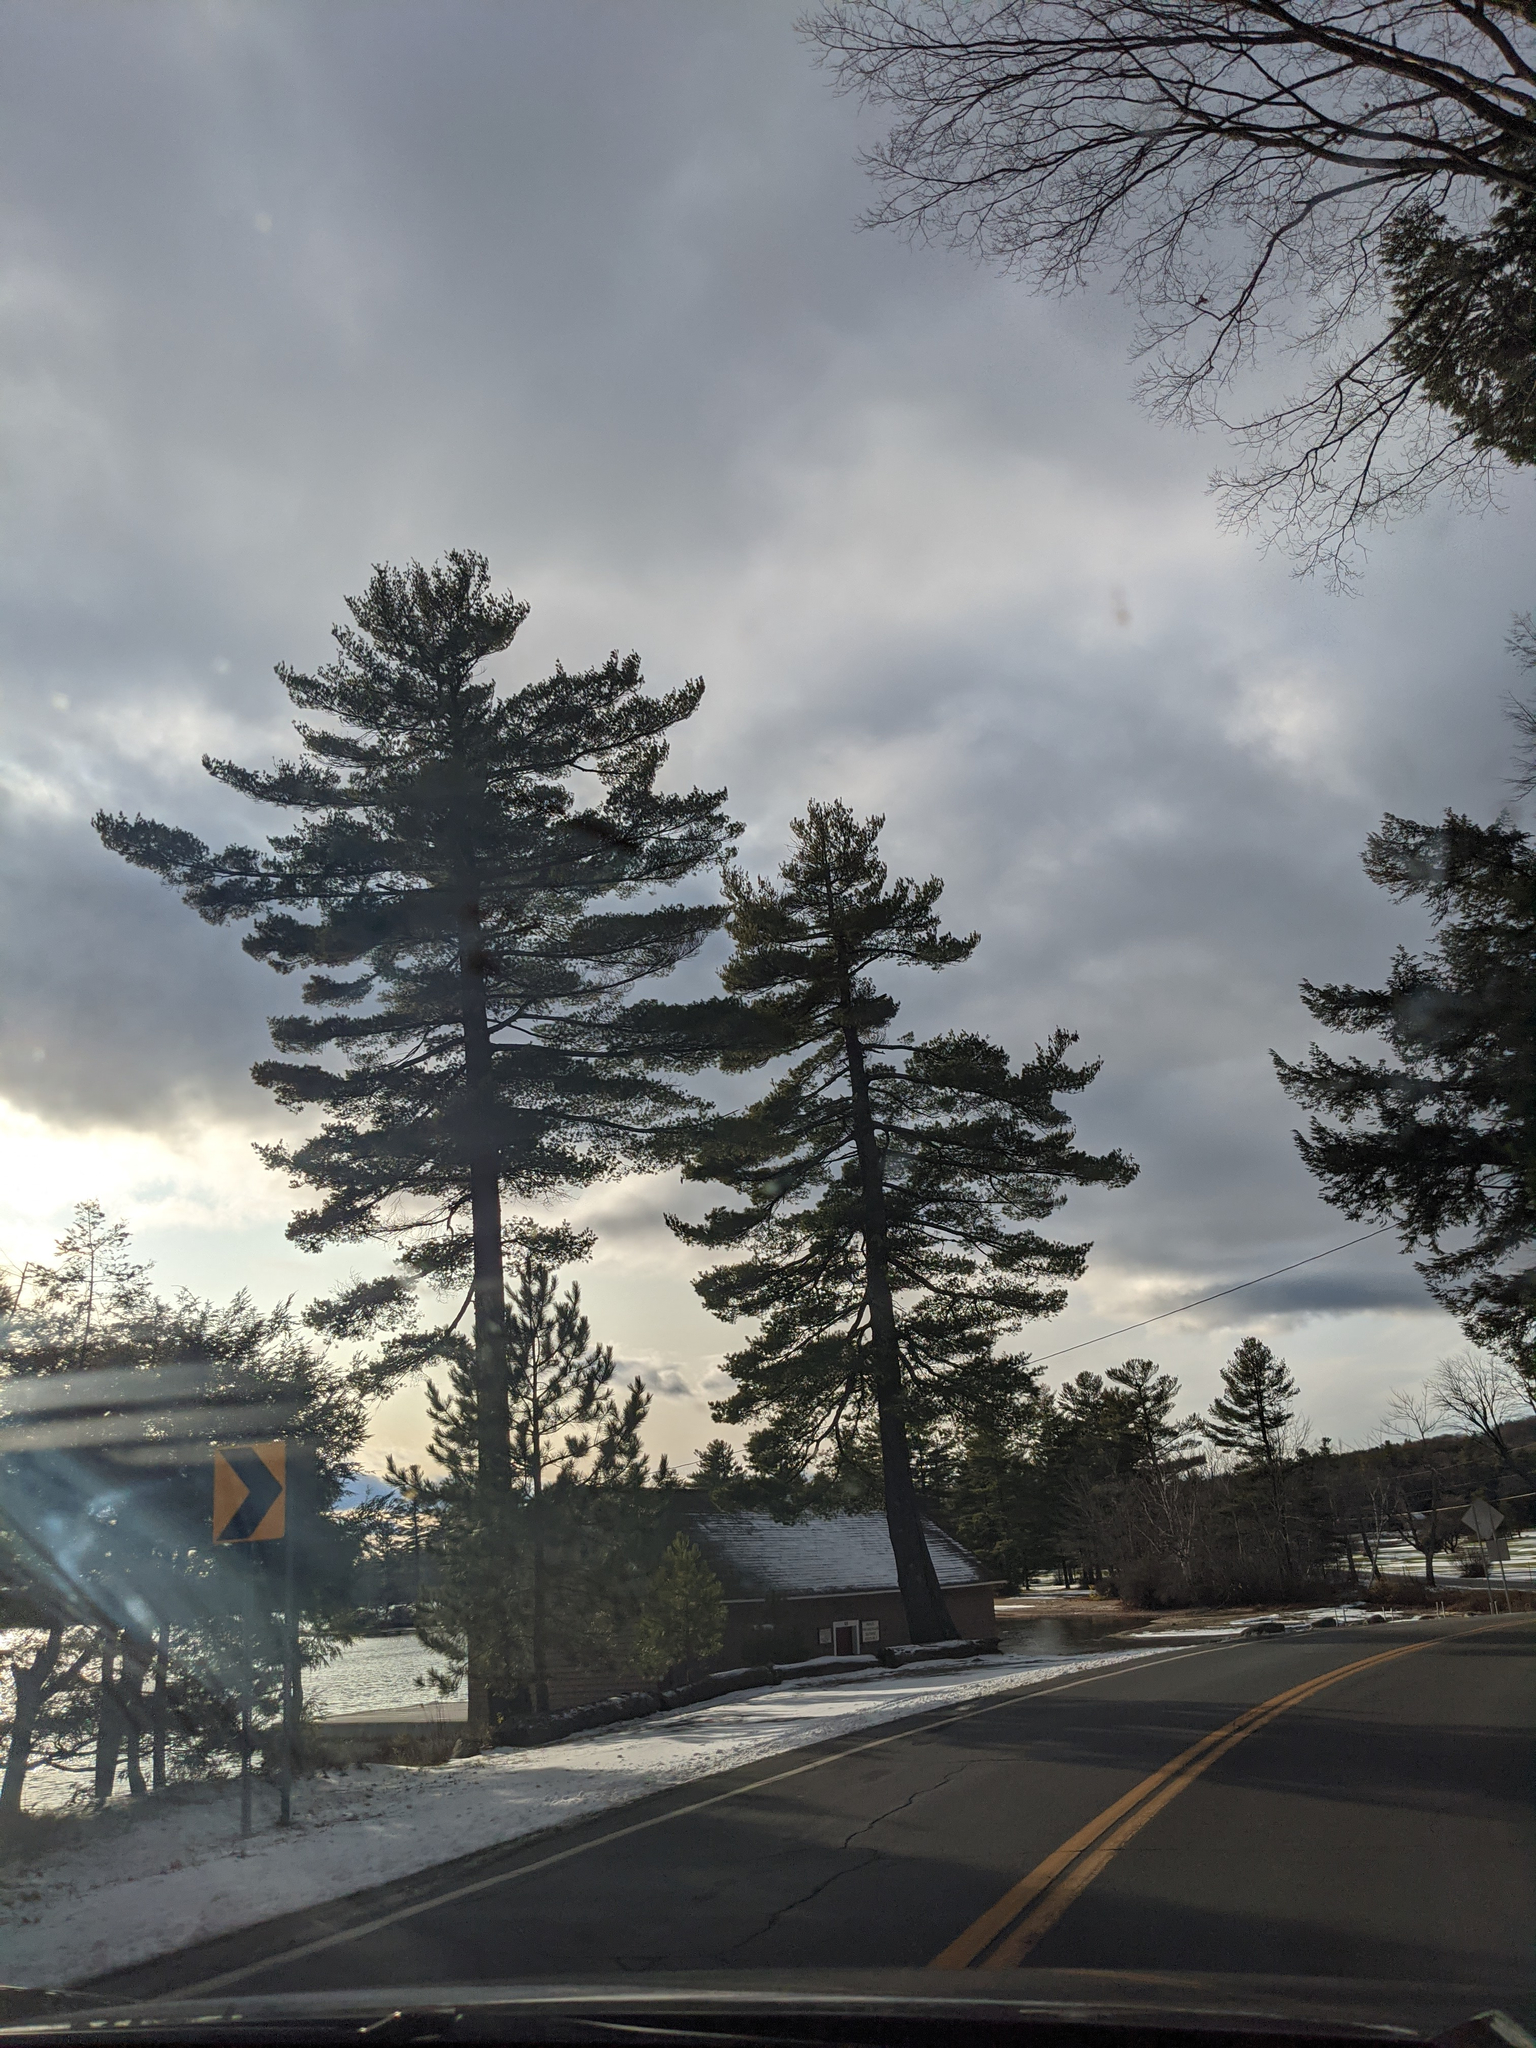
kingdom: Plantae
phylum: Tracheophyta
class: Pinopsida
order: Pinales
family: Pinaceae
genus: Pinus
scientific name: Pinus strobus
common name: Weymouth pine
